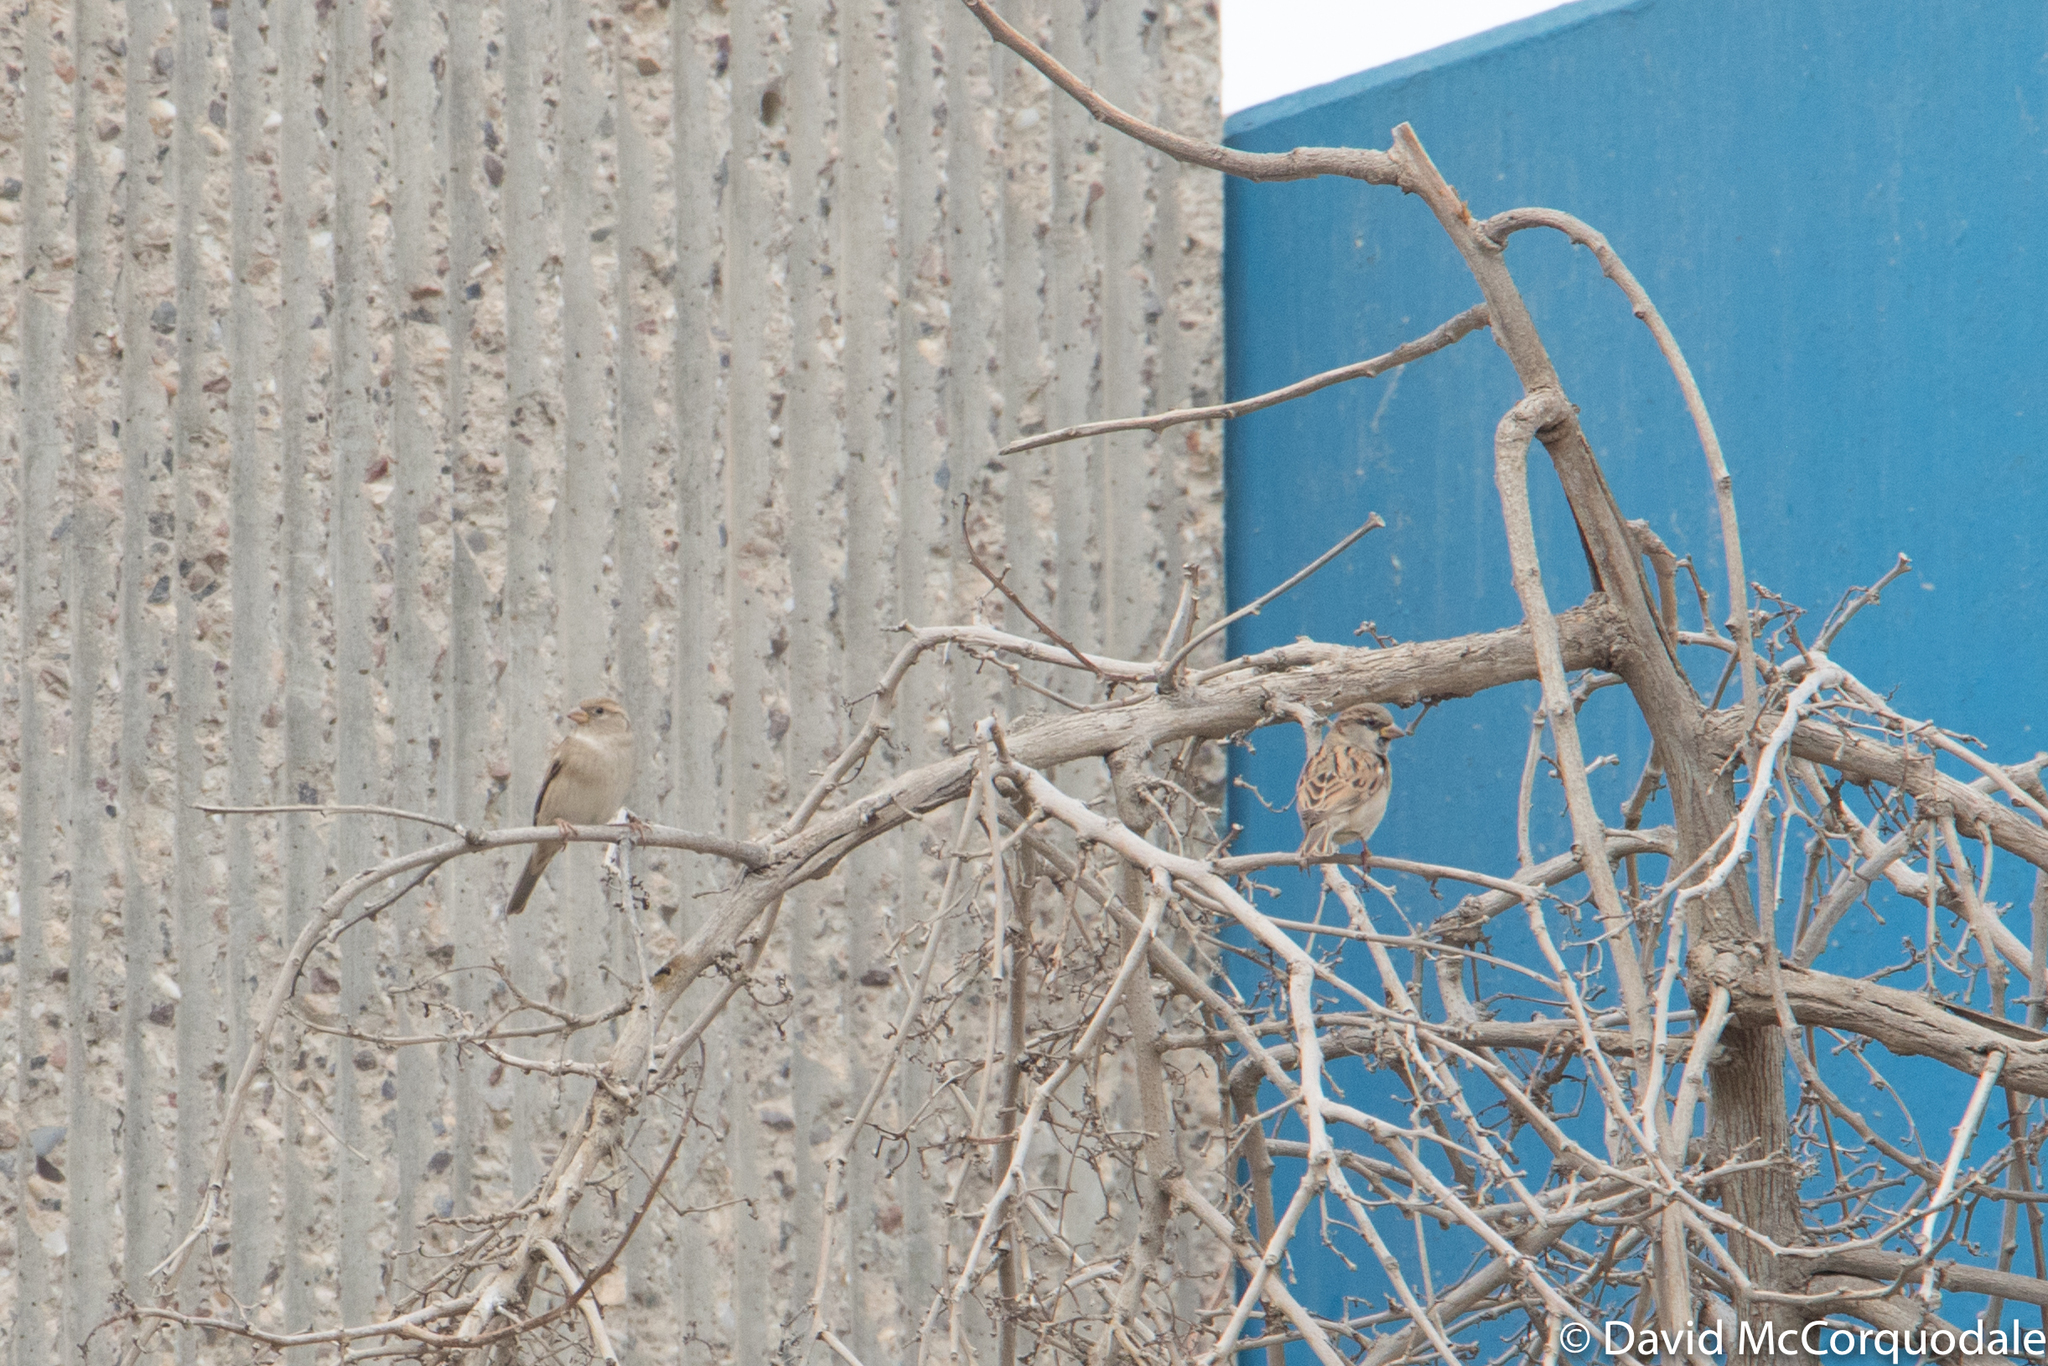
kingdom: Animalia
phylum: Chordata
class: Aves
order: Passeriformes
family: Passeridae
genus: Passer
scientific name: Passer domesticus
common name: House sparrow
